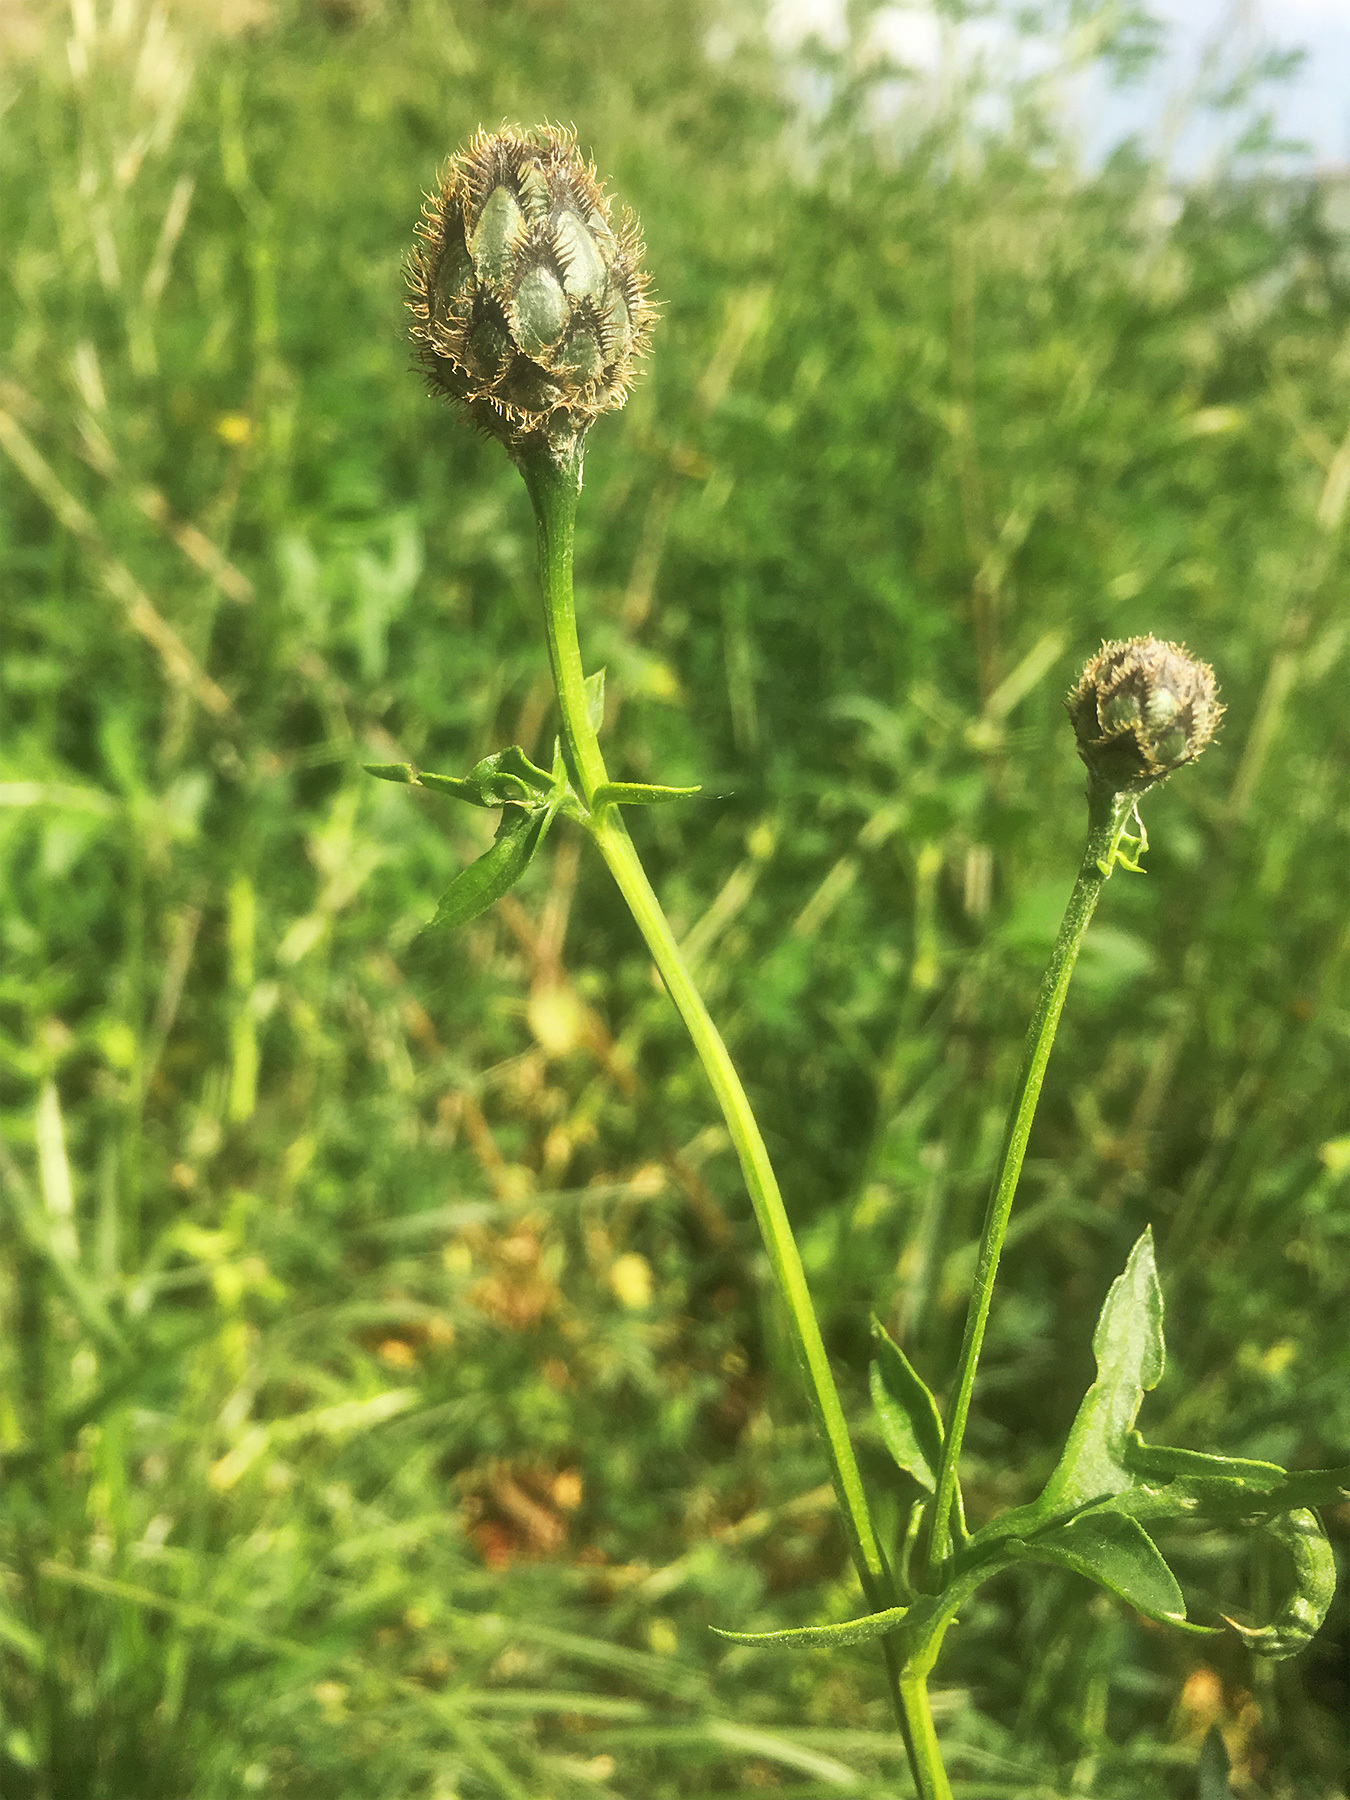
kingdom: Plantae
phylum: Tracheophyta
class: Magnoliopsida
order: Asterales
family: Asteraceae
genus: Centaurea
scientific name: Centaurea scabiosa
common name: Greater knapweed
